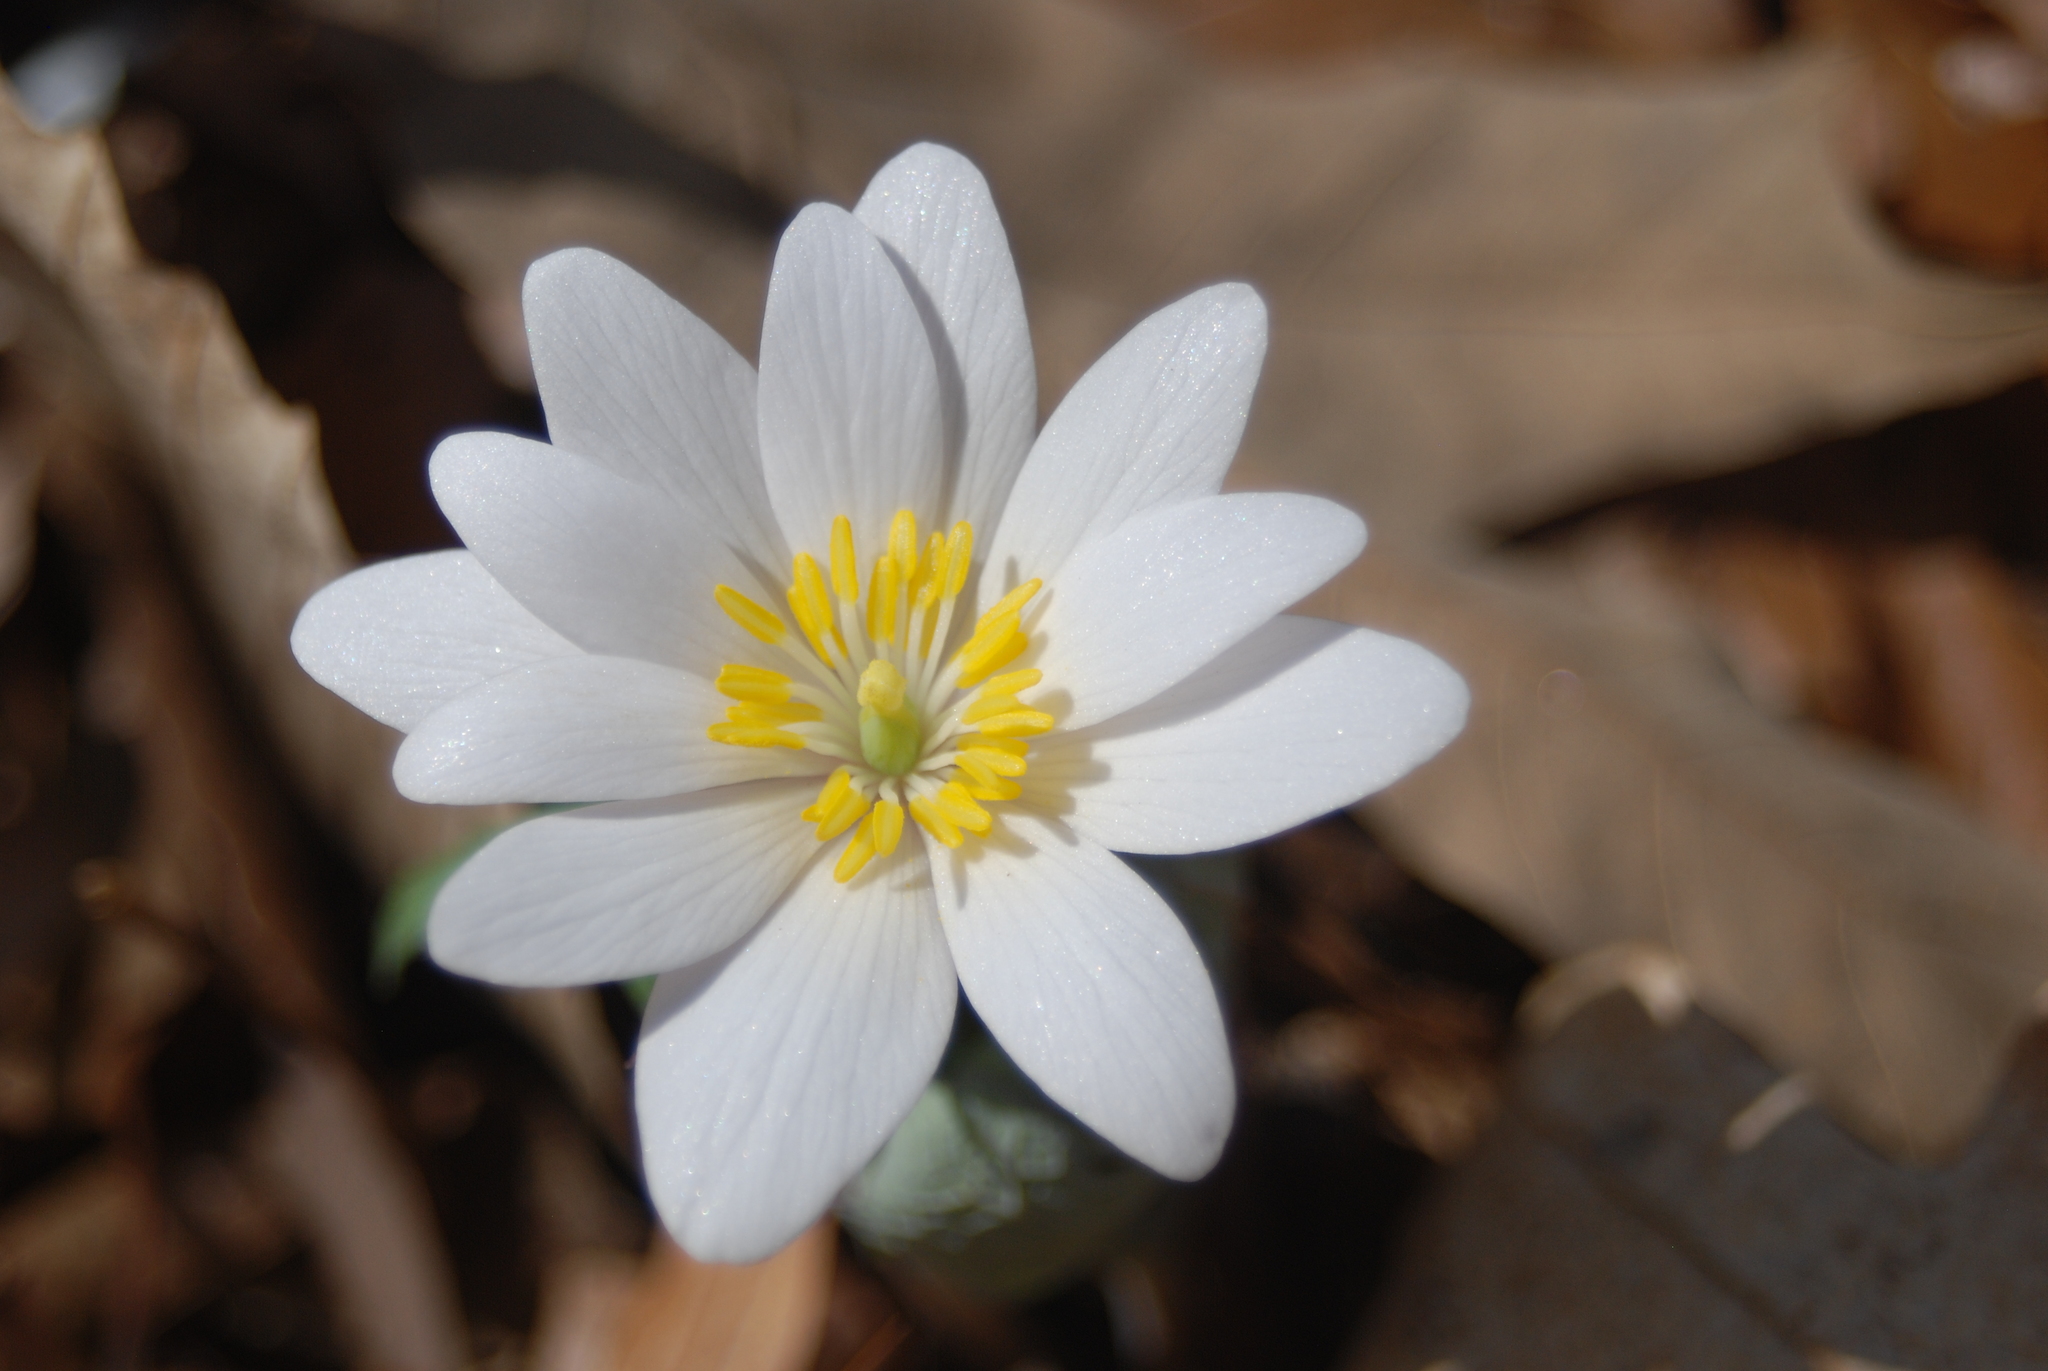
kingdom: Plantae
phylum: Tracheophyta
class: Magnoliopsida
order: Ranunculales
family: Papaveraceae
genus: Sanguinaria
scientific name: Sanguinaria canadensis
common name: Bloodroot
